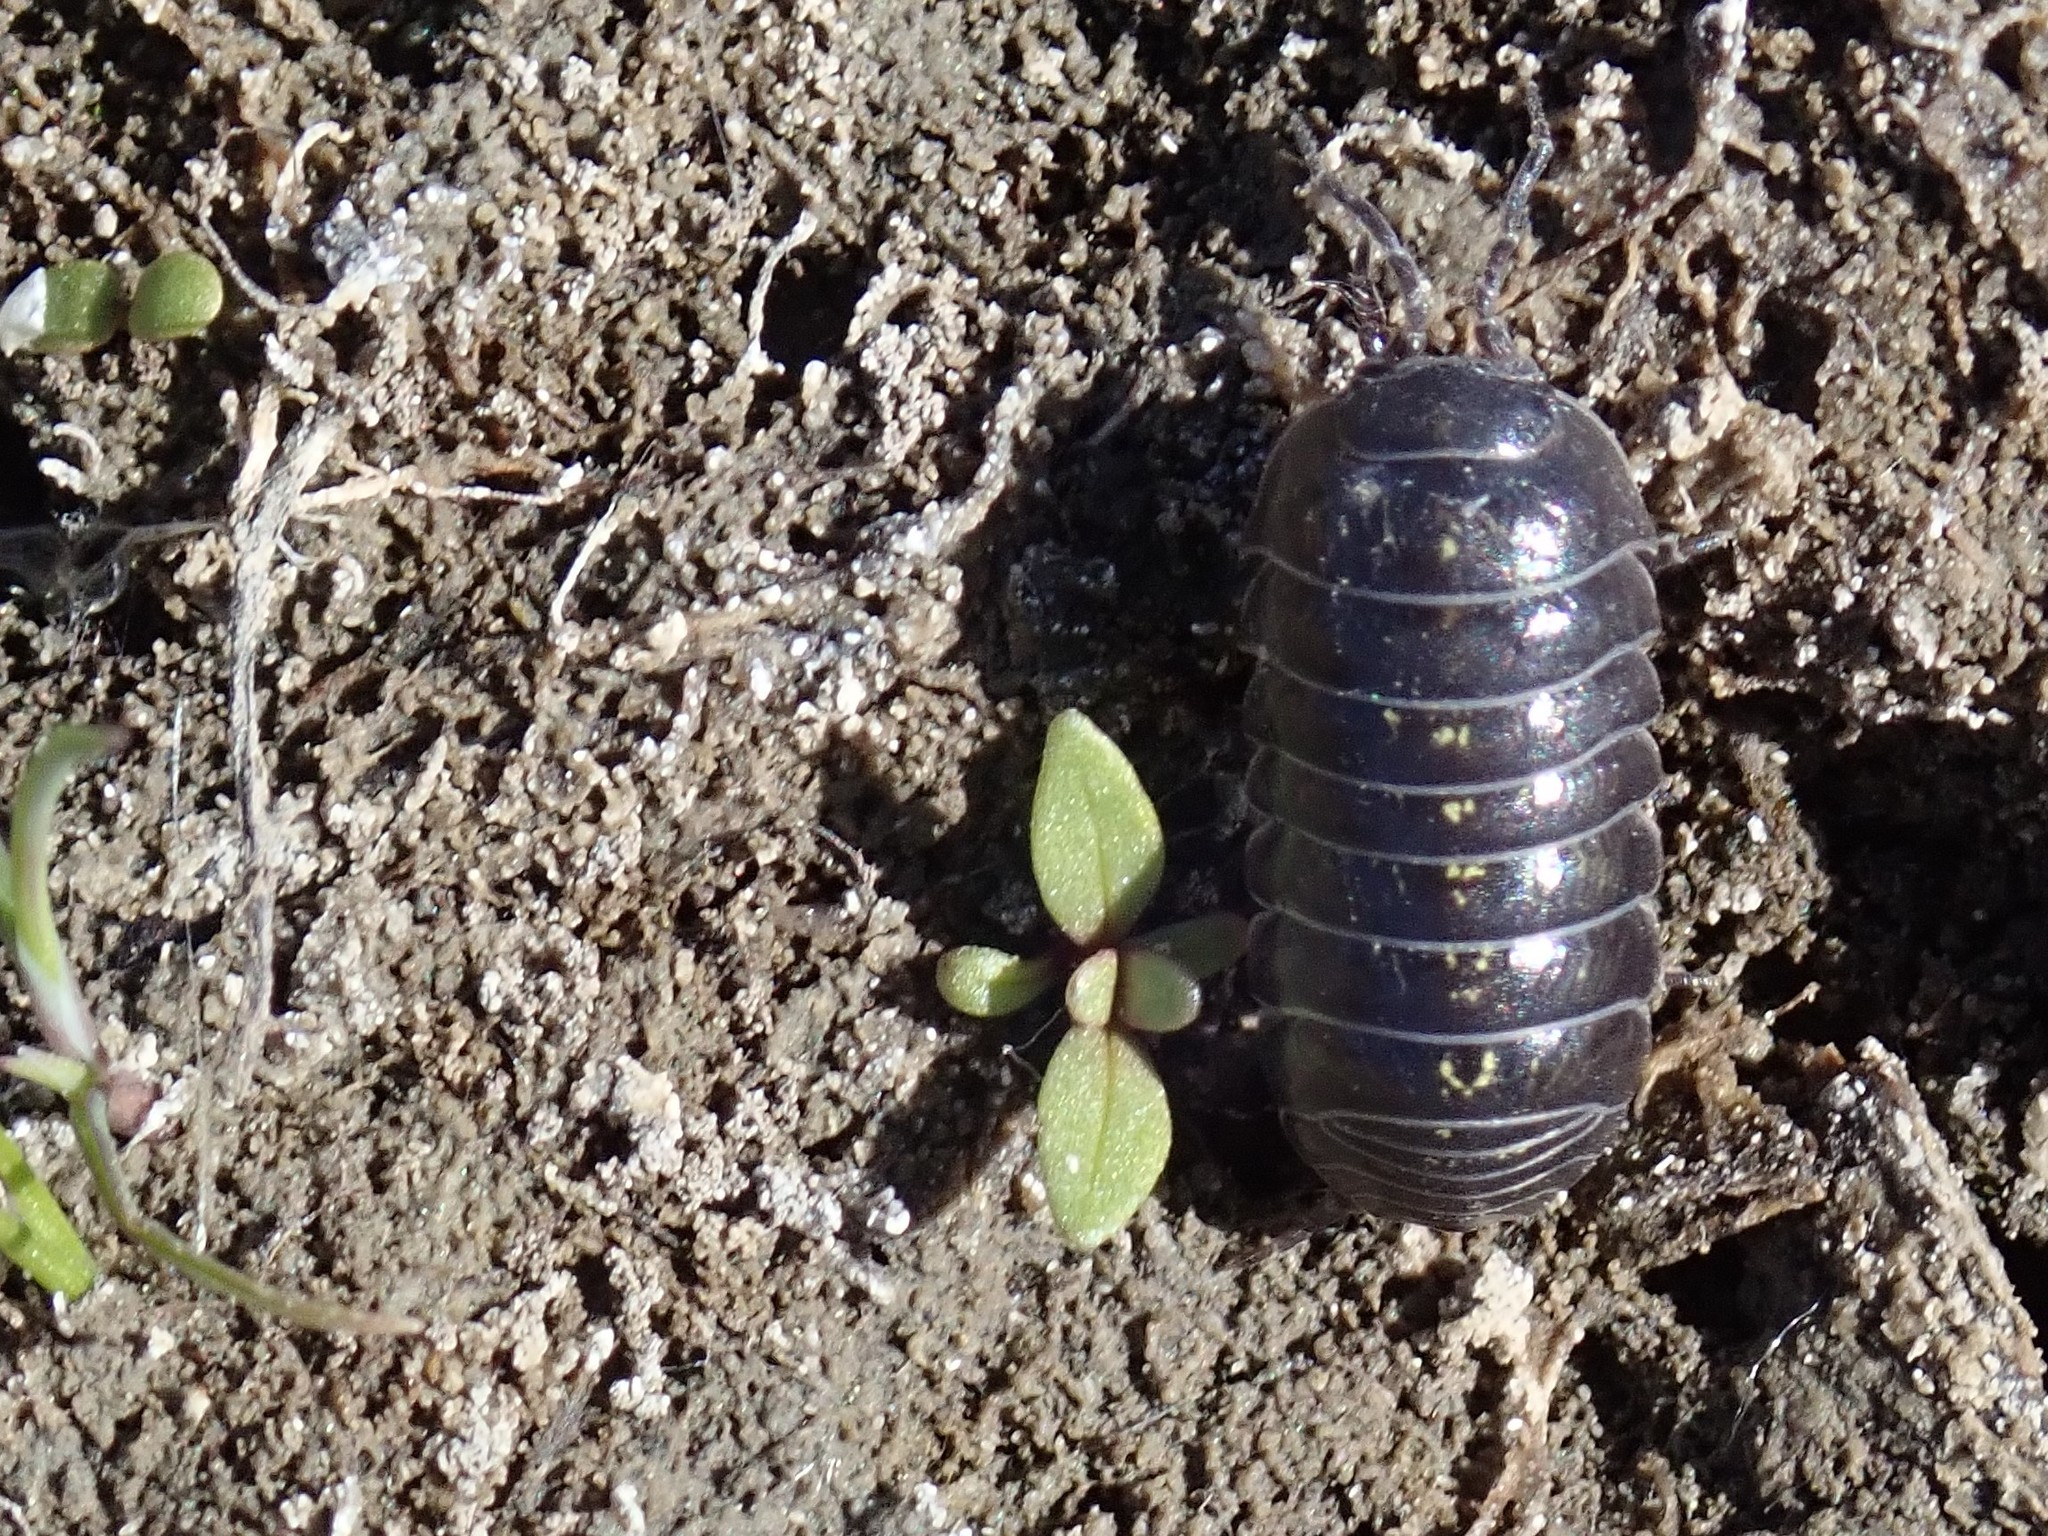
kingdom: Animalia
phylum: Arthropoda
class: Malacostraca
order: Isopoda
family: Armadillidiidae
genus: Armadillidium
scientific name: Armadillidium vulgare
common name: Common pill woodlouse
